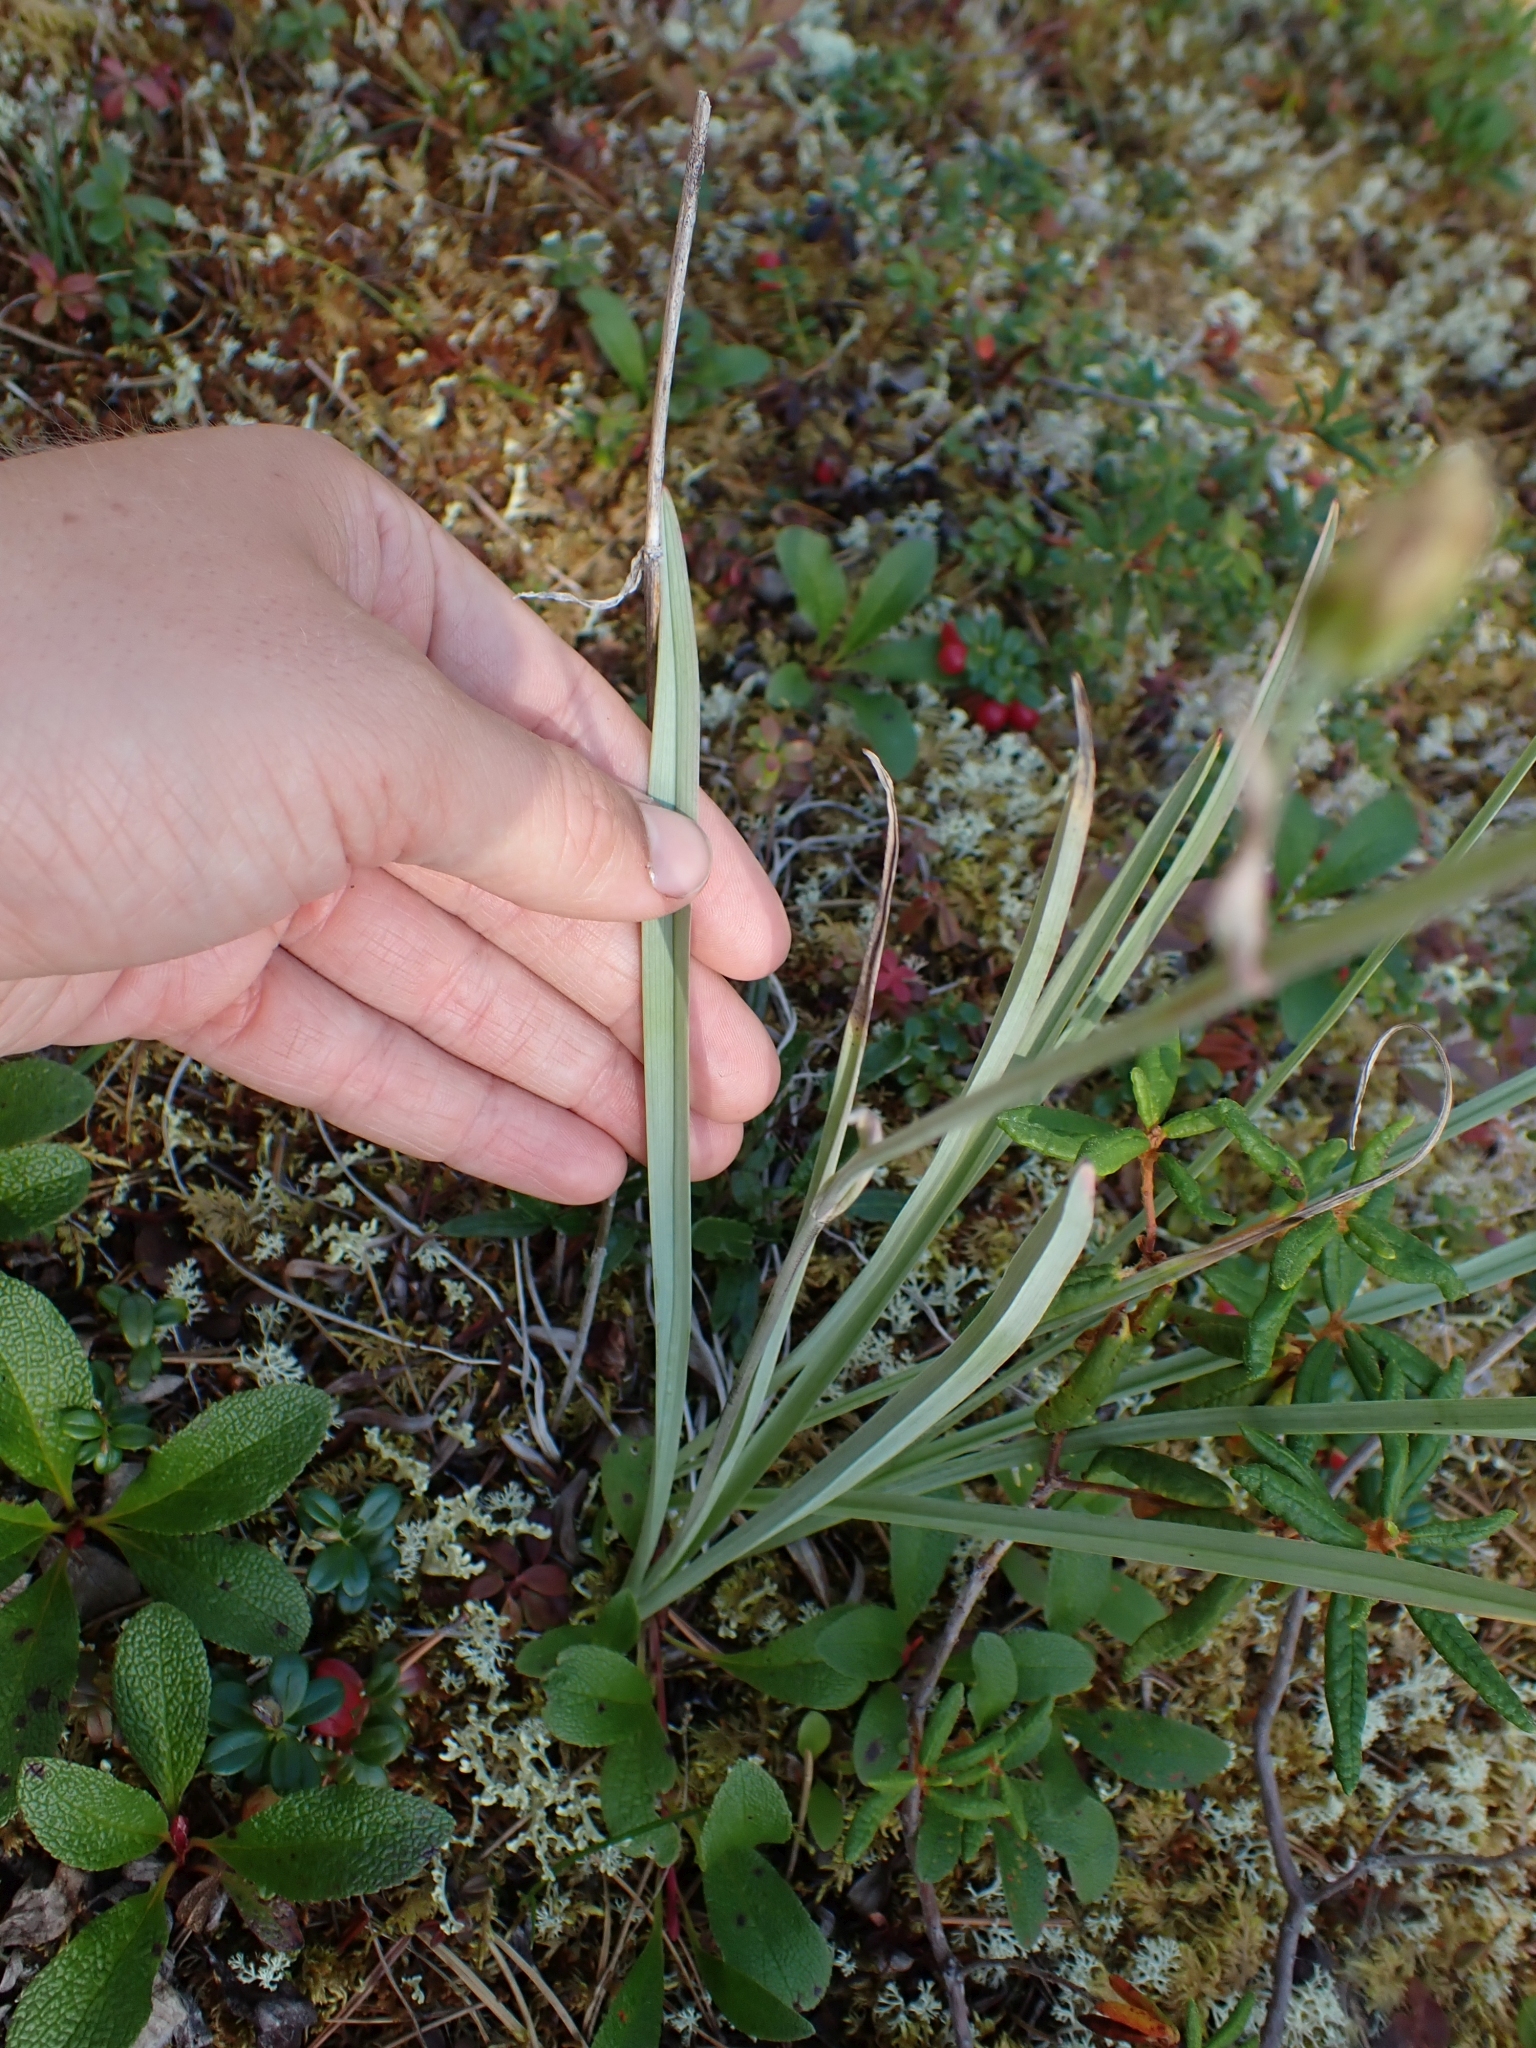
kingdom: Plantae
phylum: Tracheophyta
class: Liliopsida
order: Liliales
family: Melanthiaceae
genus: Anticlea
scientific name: Anticlea elegans
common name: Mountain death camas
